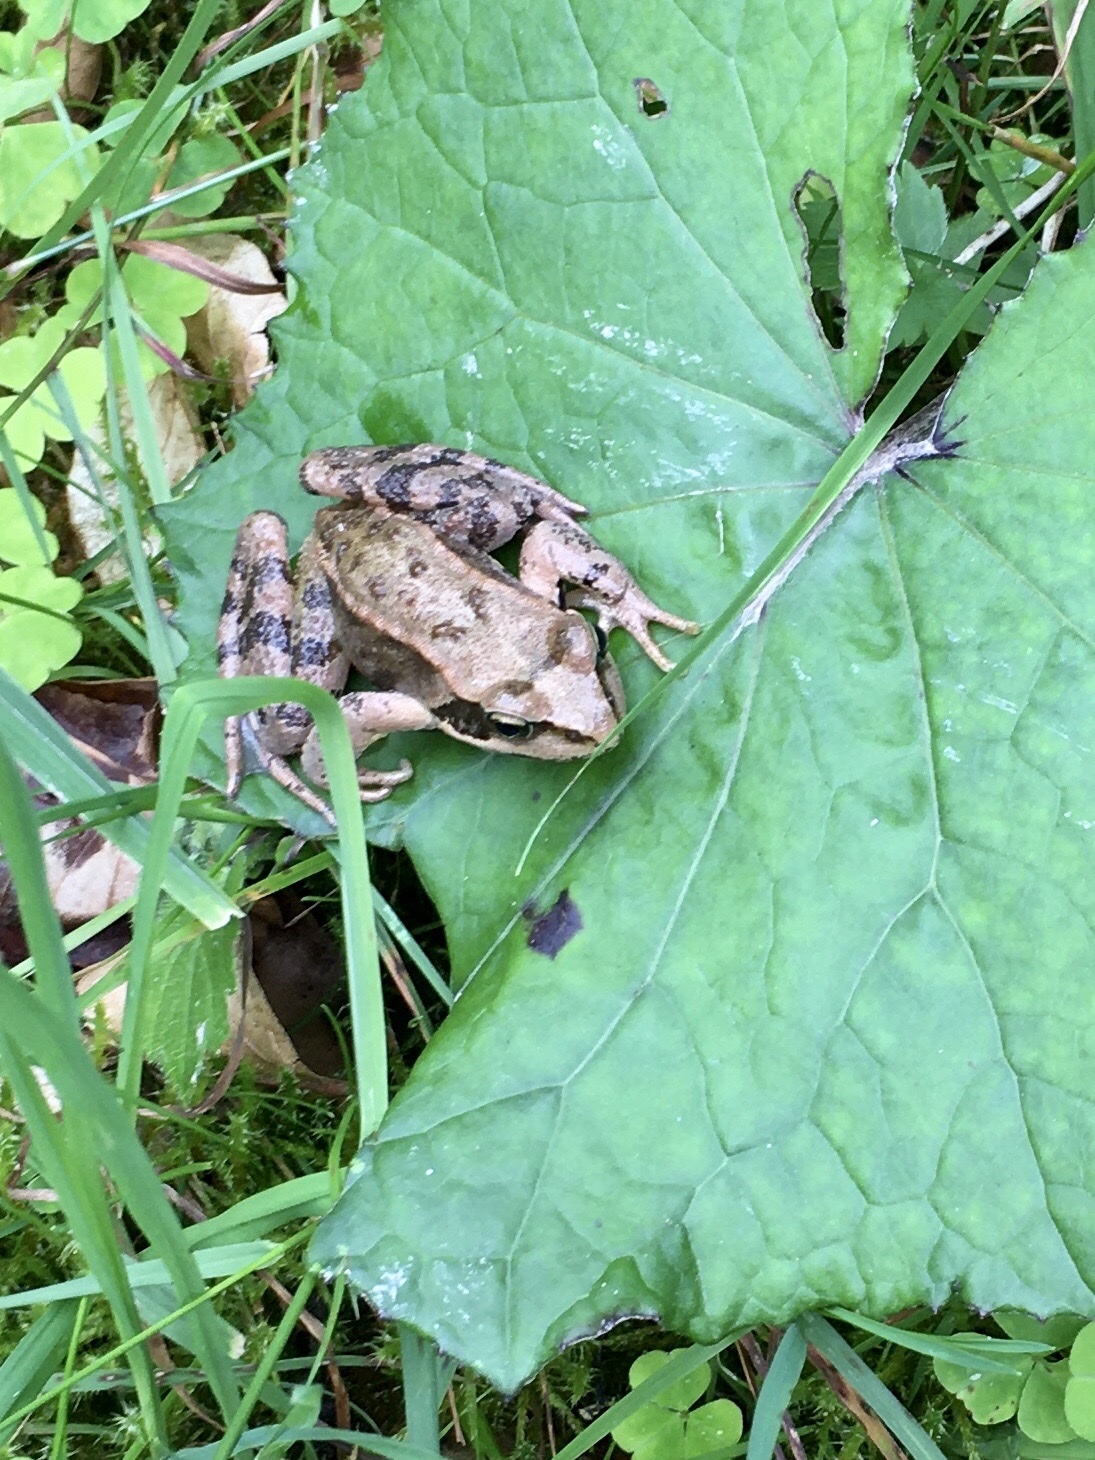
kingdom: Animalia
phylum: Chordata
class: Amphibia
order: Anura
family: Ranidae
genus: Rana
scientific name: Rana temporaria
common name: Common frog
